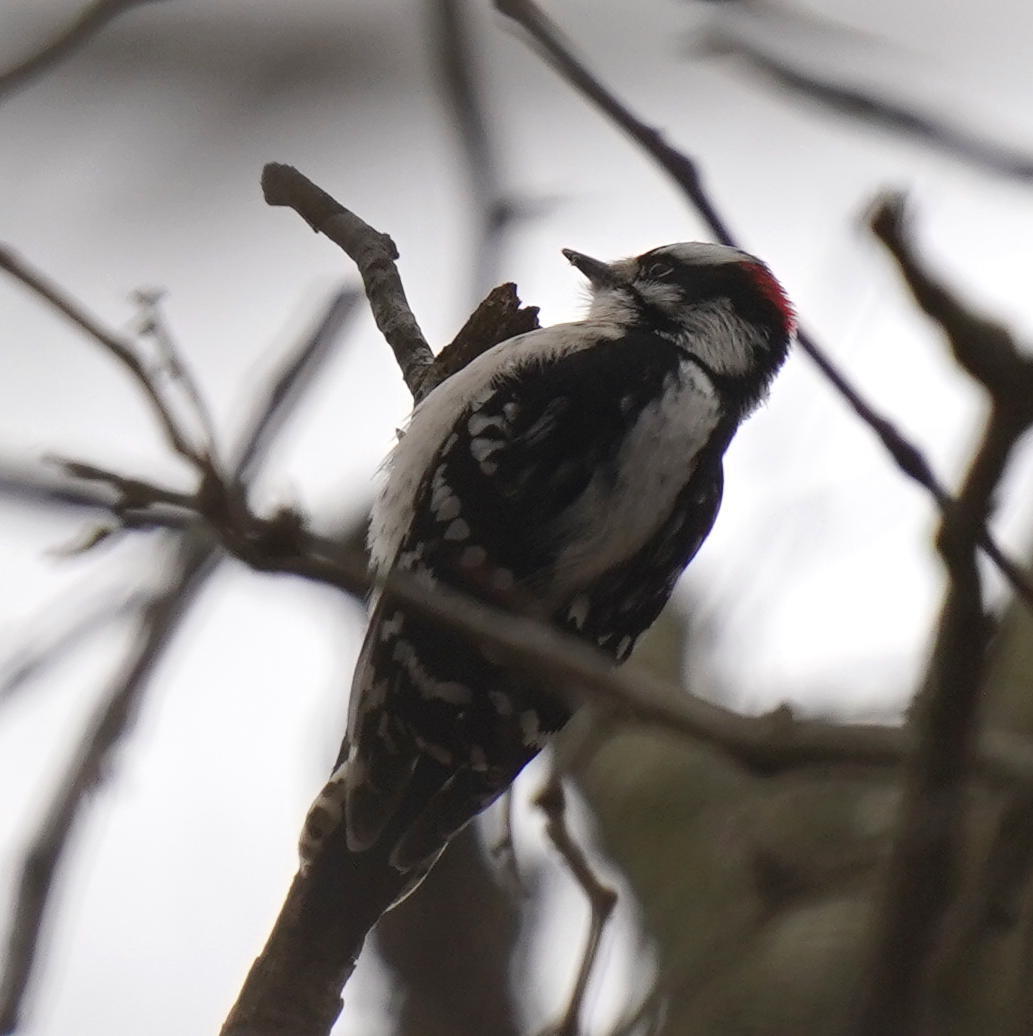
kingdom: Animalia
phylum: Chordata
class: Aves
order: Piciformes
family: Picidae
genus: Dryobates
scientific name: Dryobates pubescens
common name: Downy woodpecker
